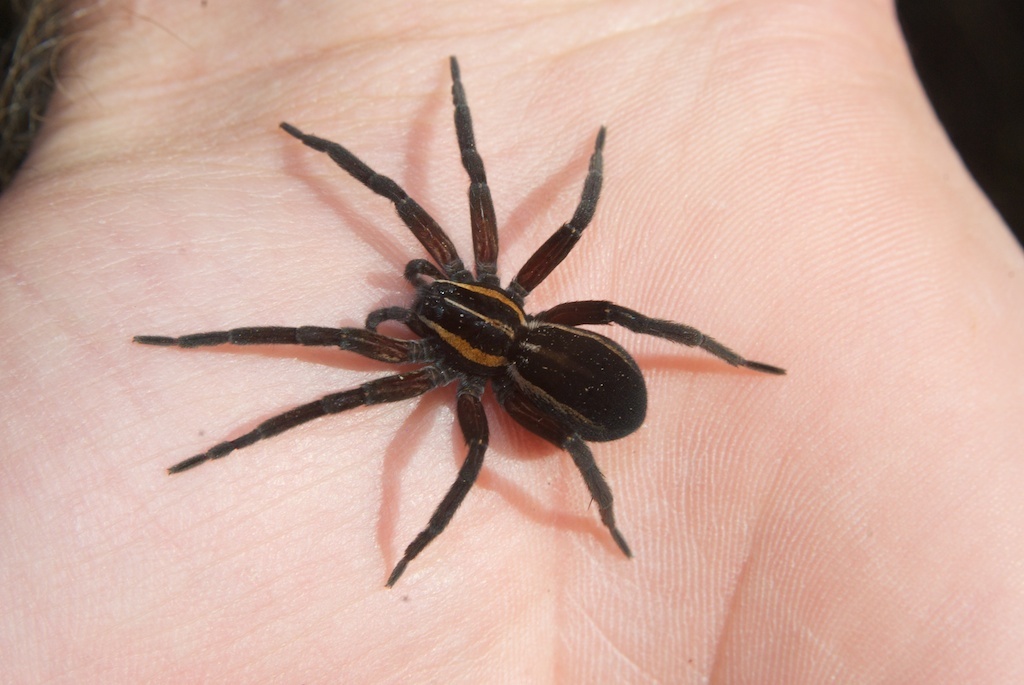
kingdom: Animalia
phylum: Arthropoda
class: Arachnida
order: Araneae
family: Pisauridae
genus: Dolomedes
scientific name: Dolomedes minor
